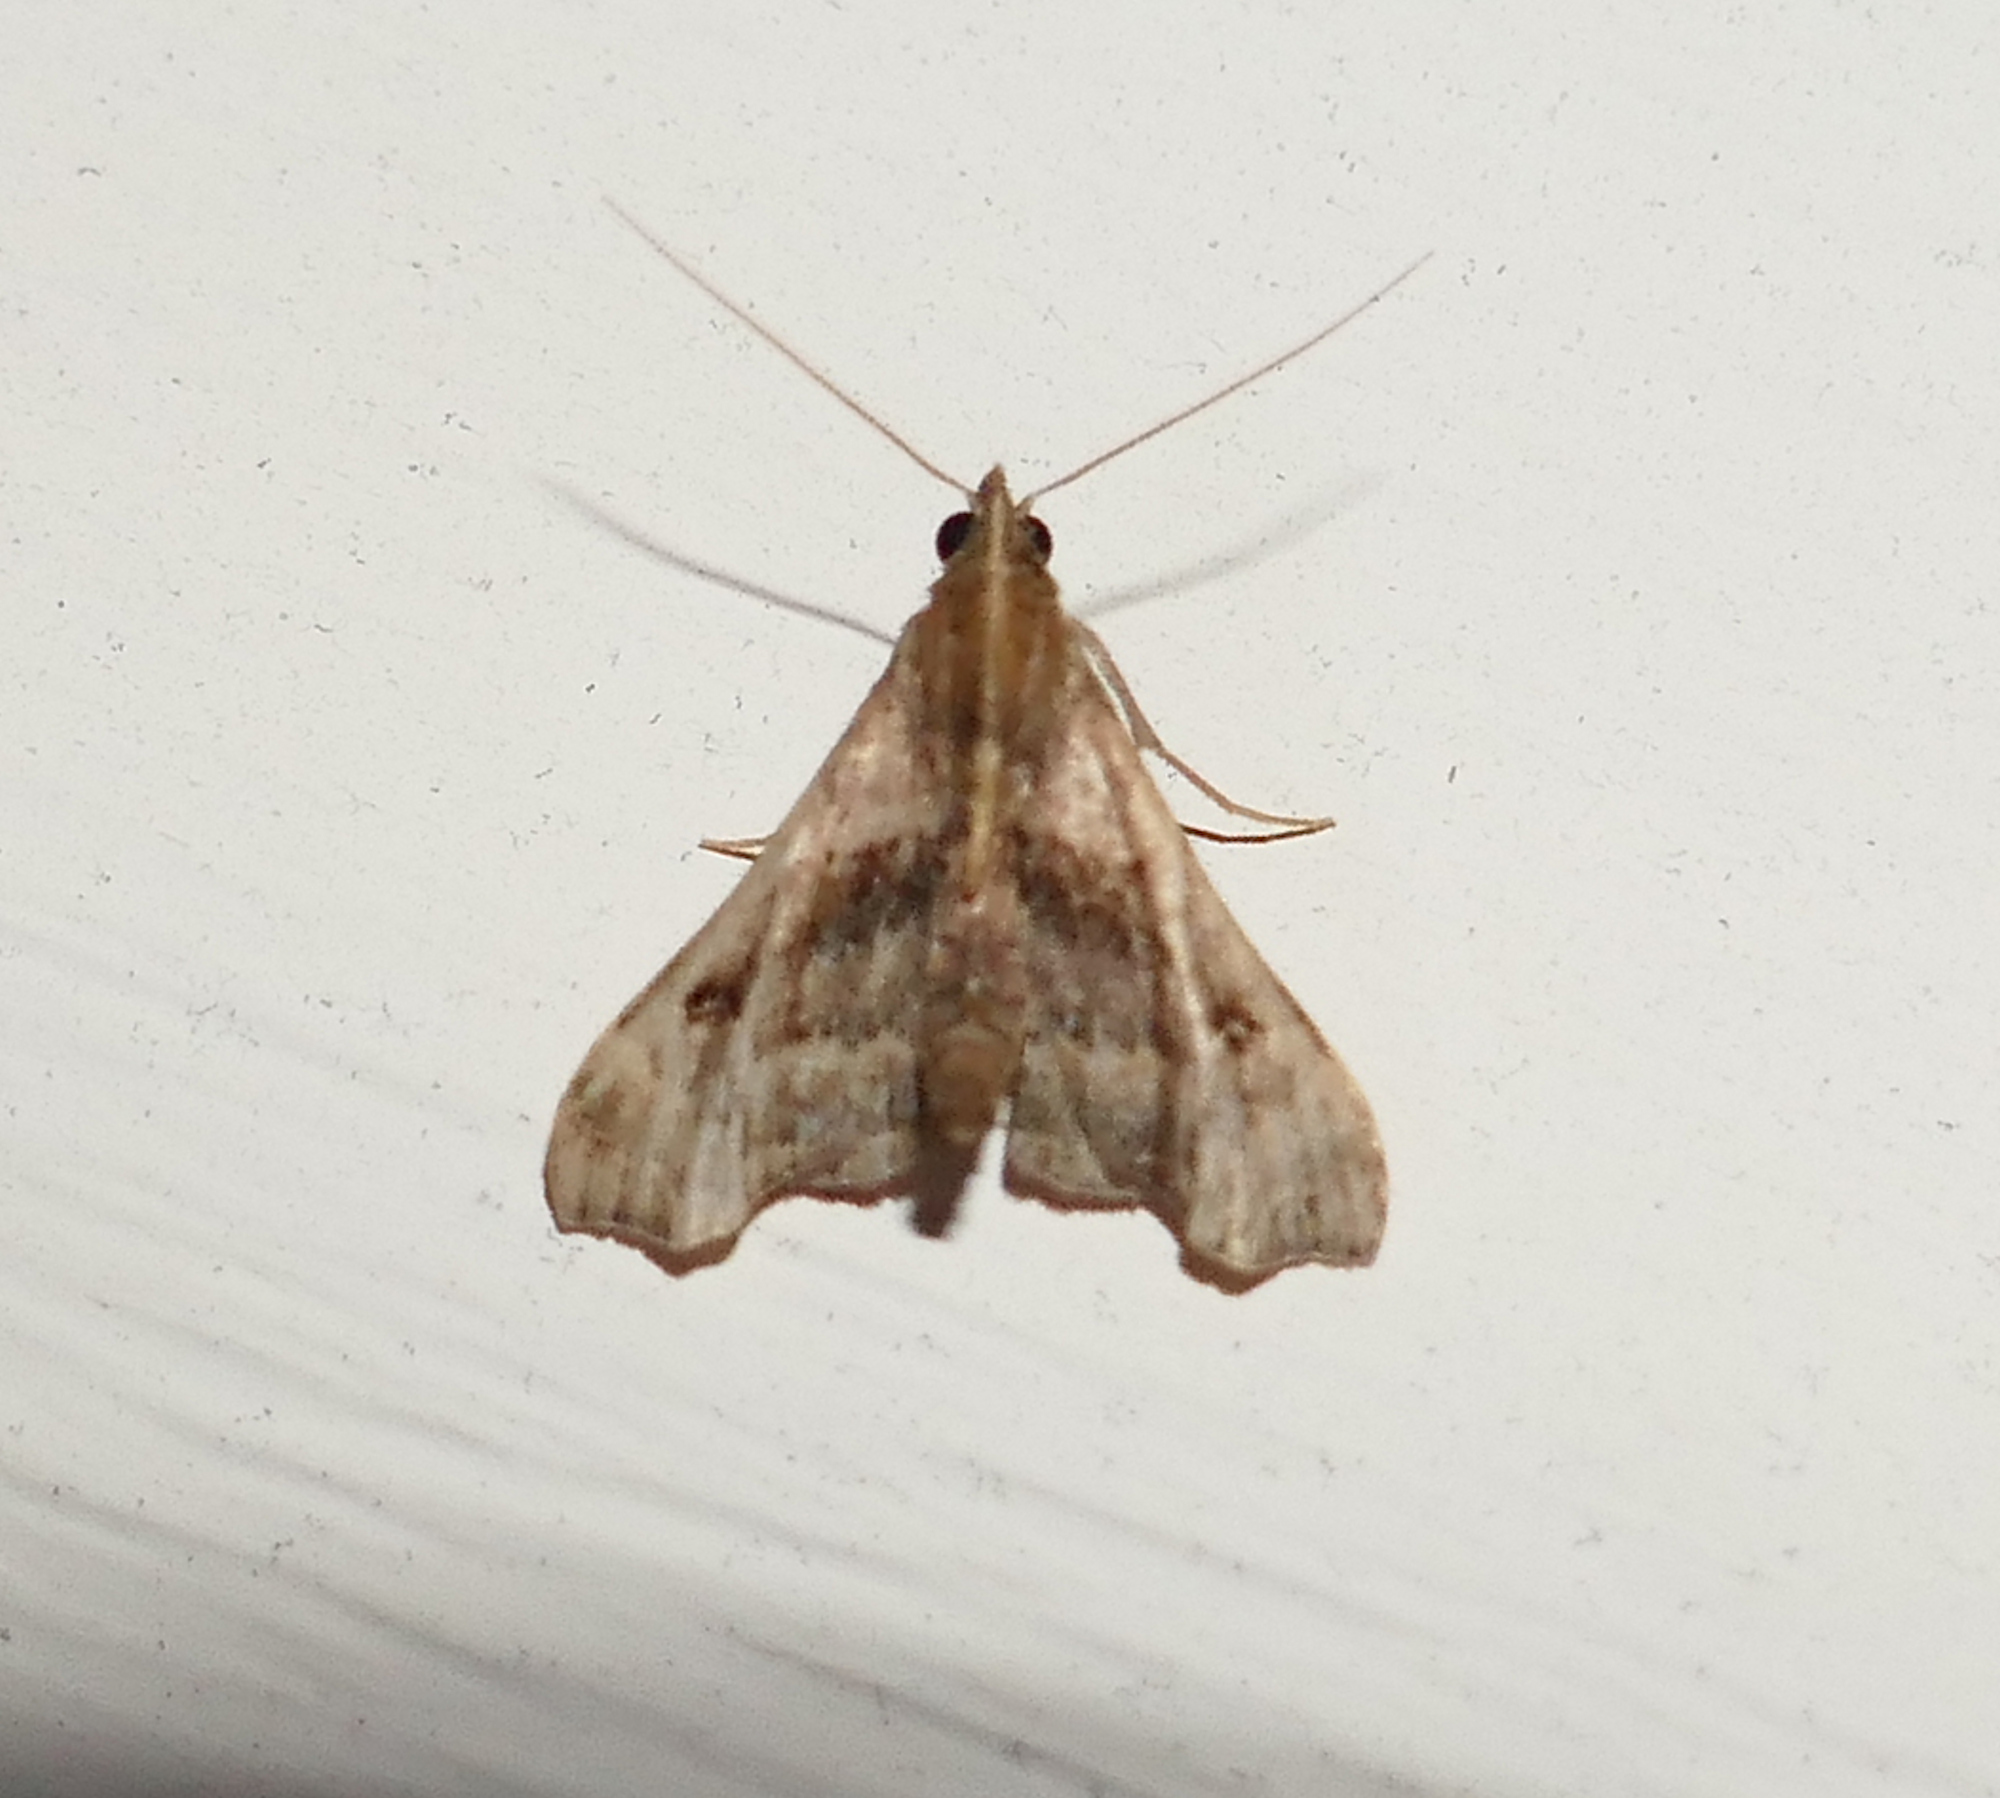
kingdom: Animalia
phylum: Arthropoda
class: Insecta
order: Lepidoptera
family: Erebidae
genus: Palthis
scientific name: Palthis asopialis
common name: Faint-spotted palthis moth
